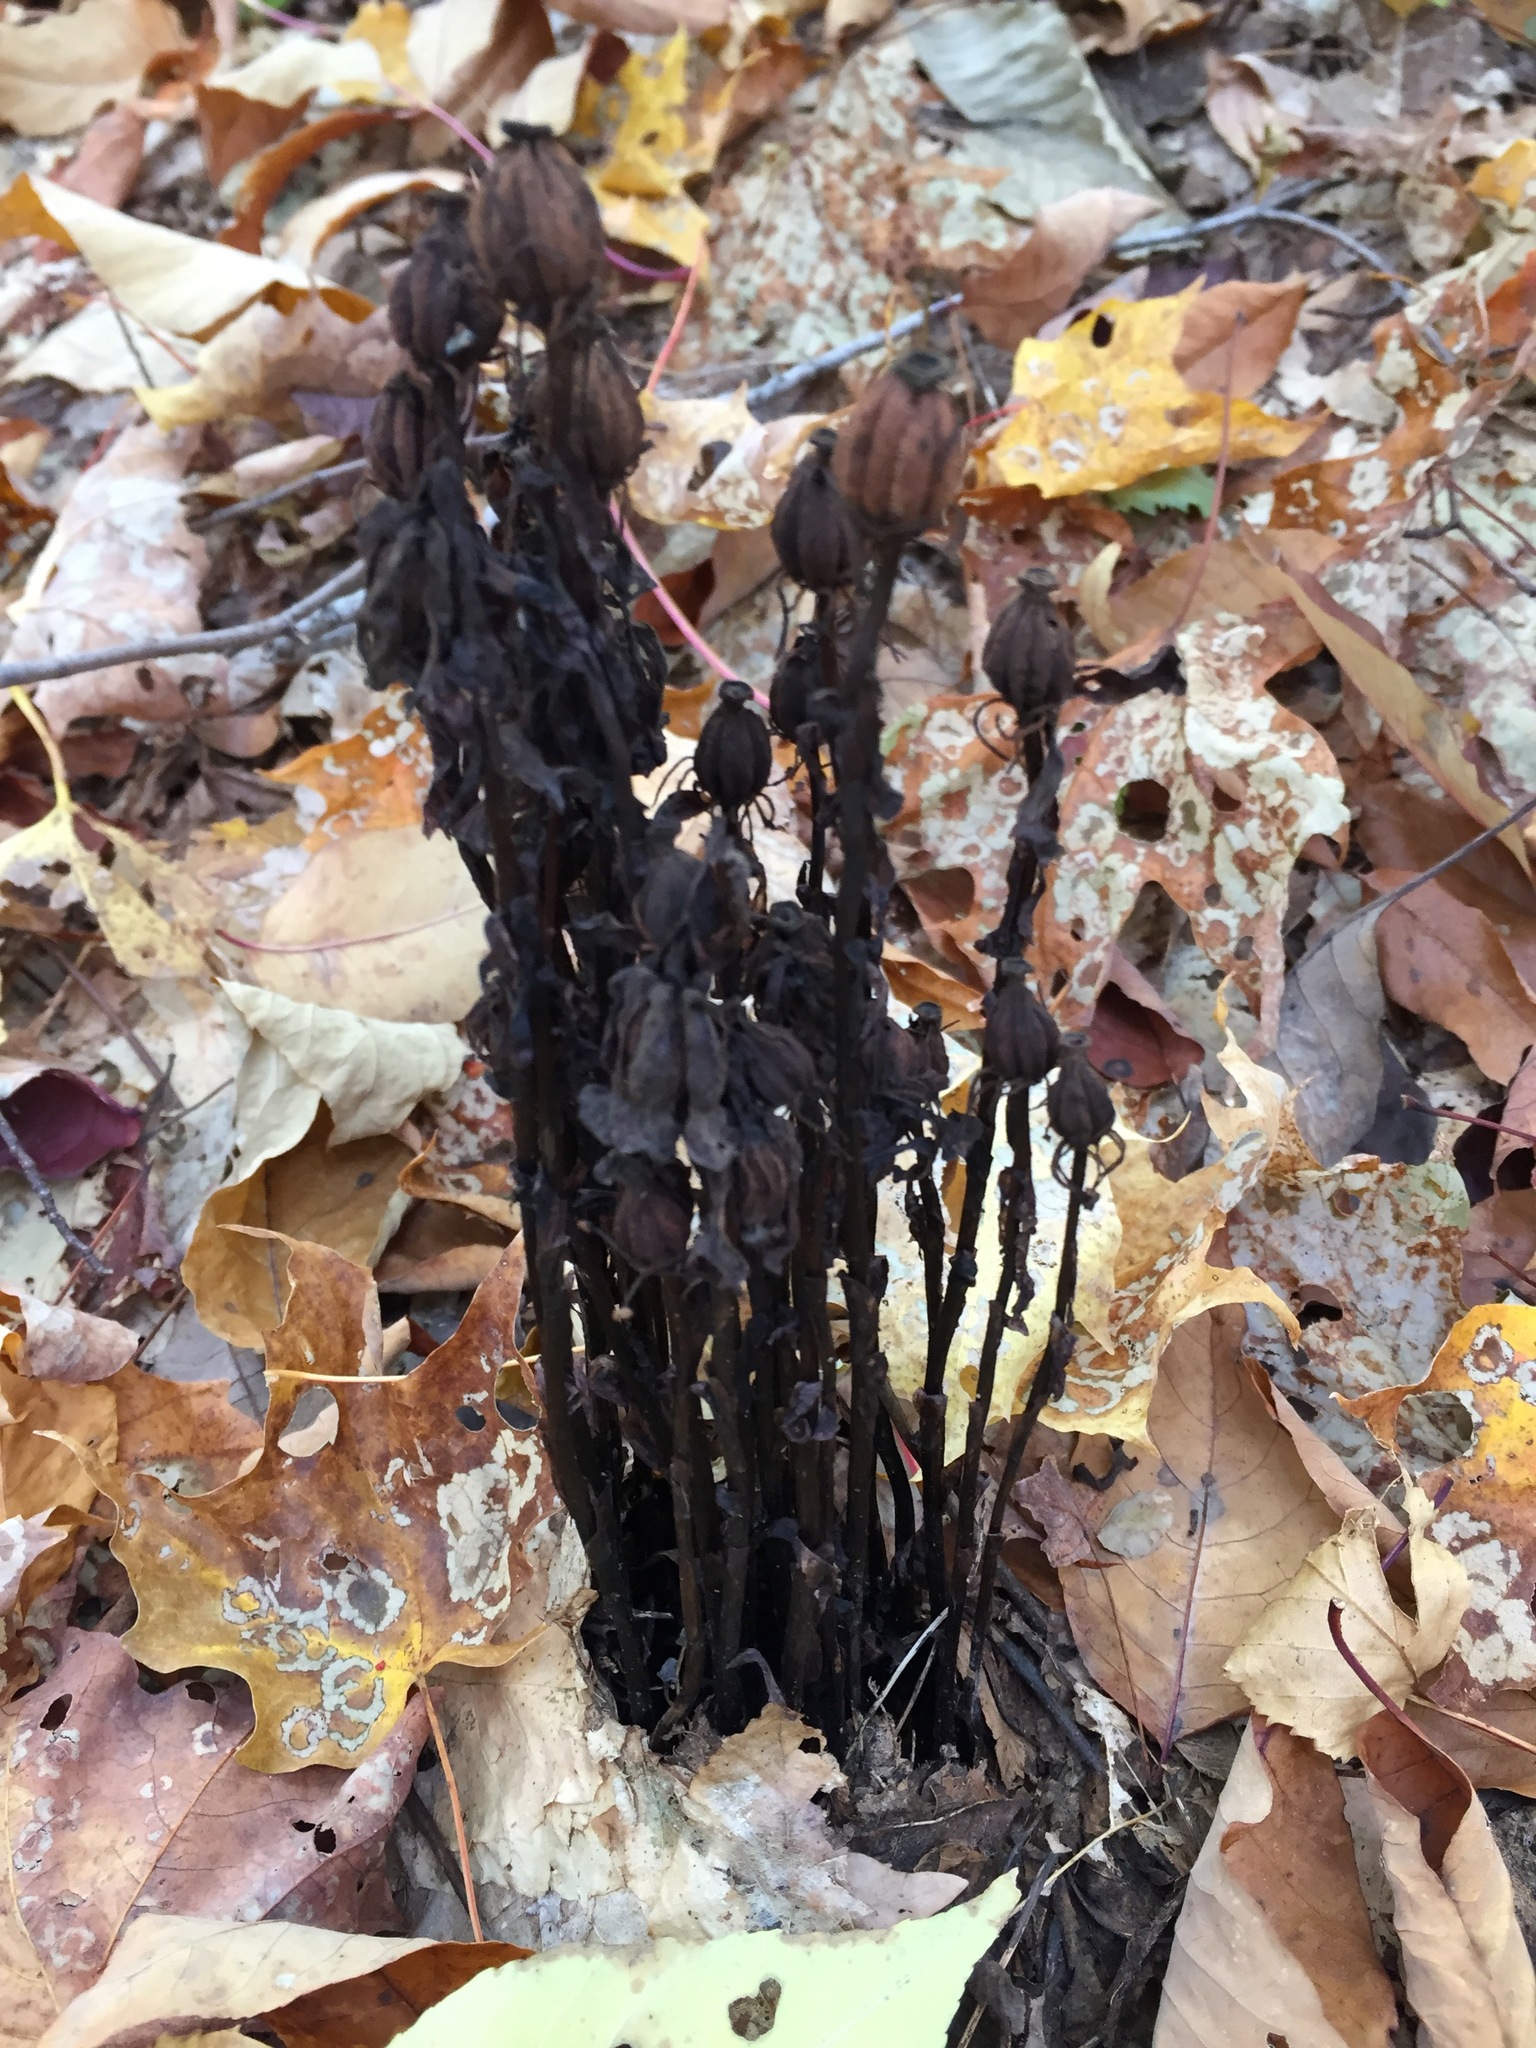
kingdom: Plantae
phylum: Tracheophyta
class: Magnoliopsida
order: Ericales
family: Ericaceae
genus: Monotropa
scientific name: Monotropa uniflora
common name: Convulsion root
